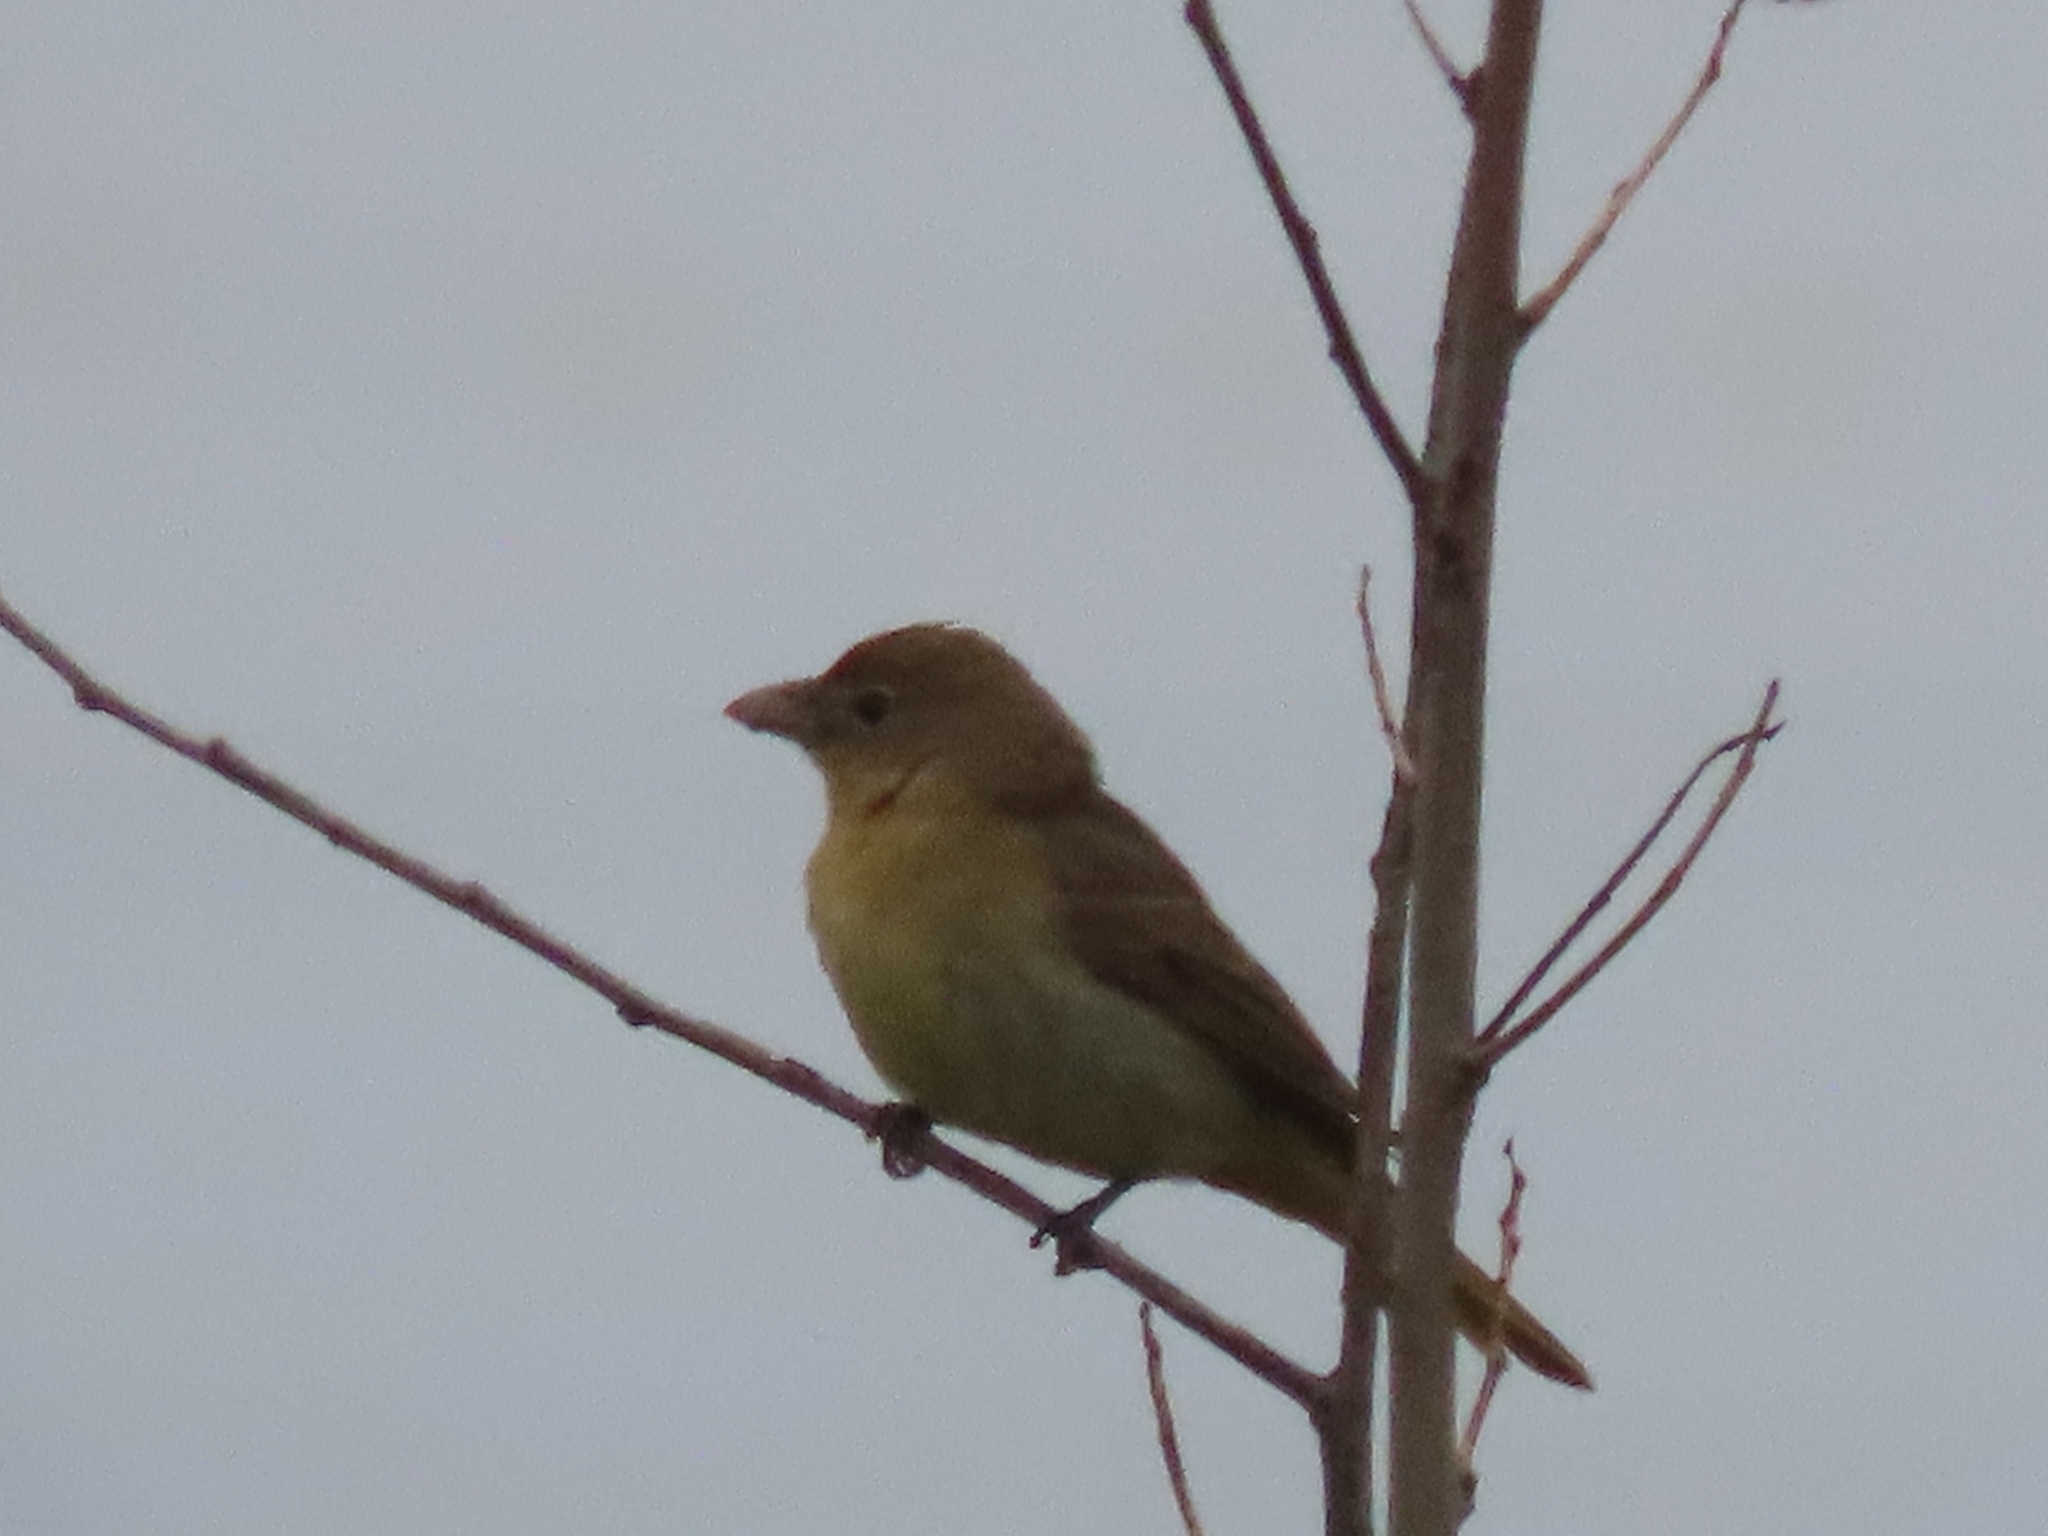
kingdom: Animalia
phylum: Chordata
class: Aves
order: Passeriformes
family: Cardinalidae
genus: Piranga
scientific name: Piranga rubra
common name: Summer tanager
